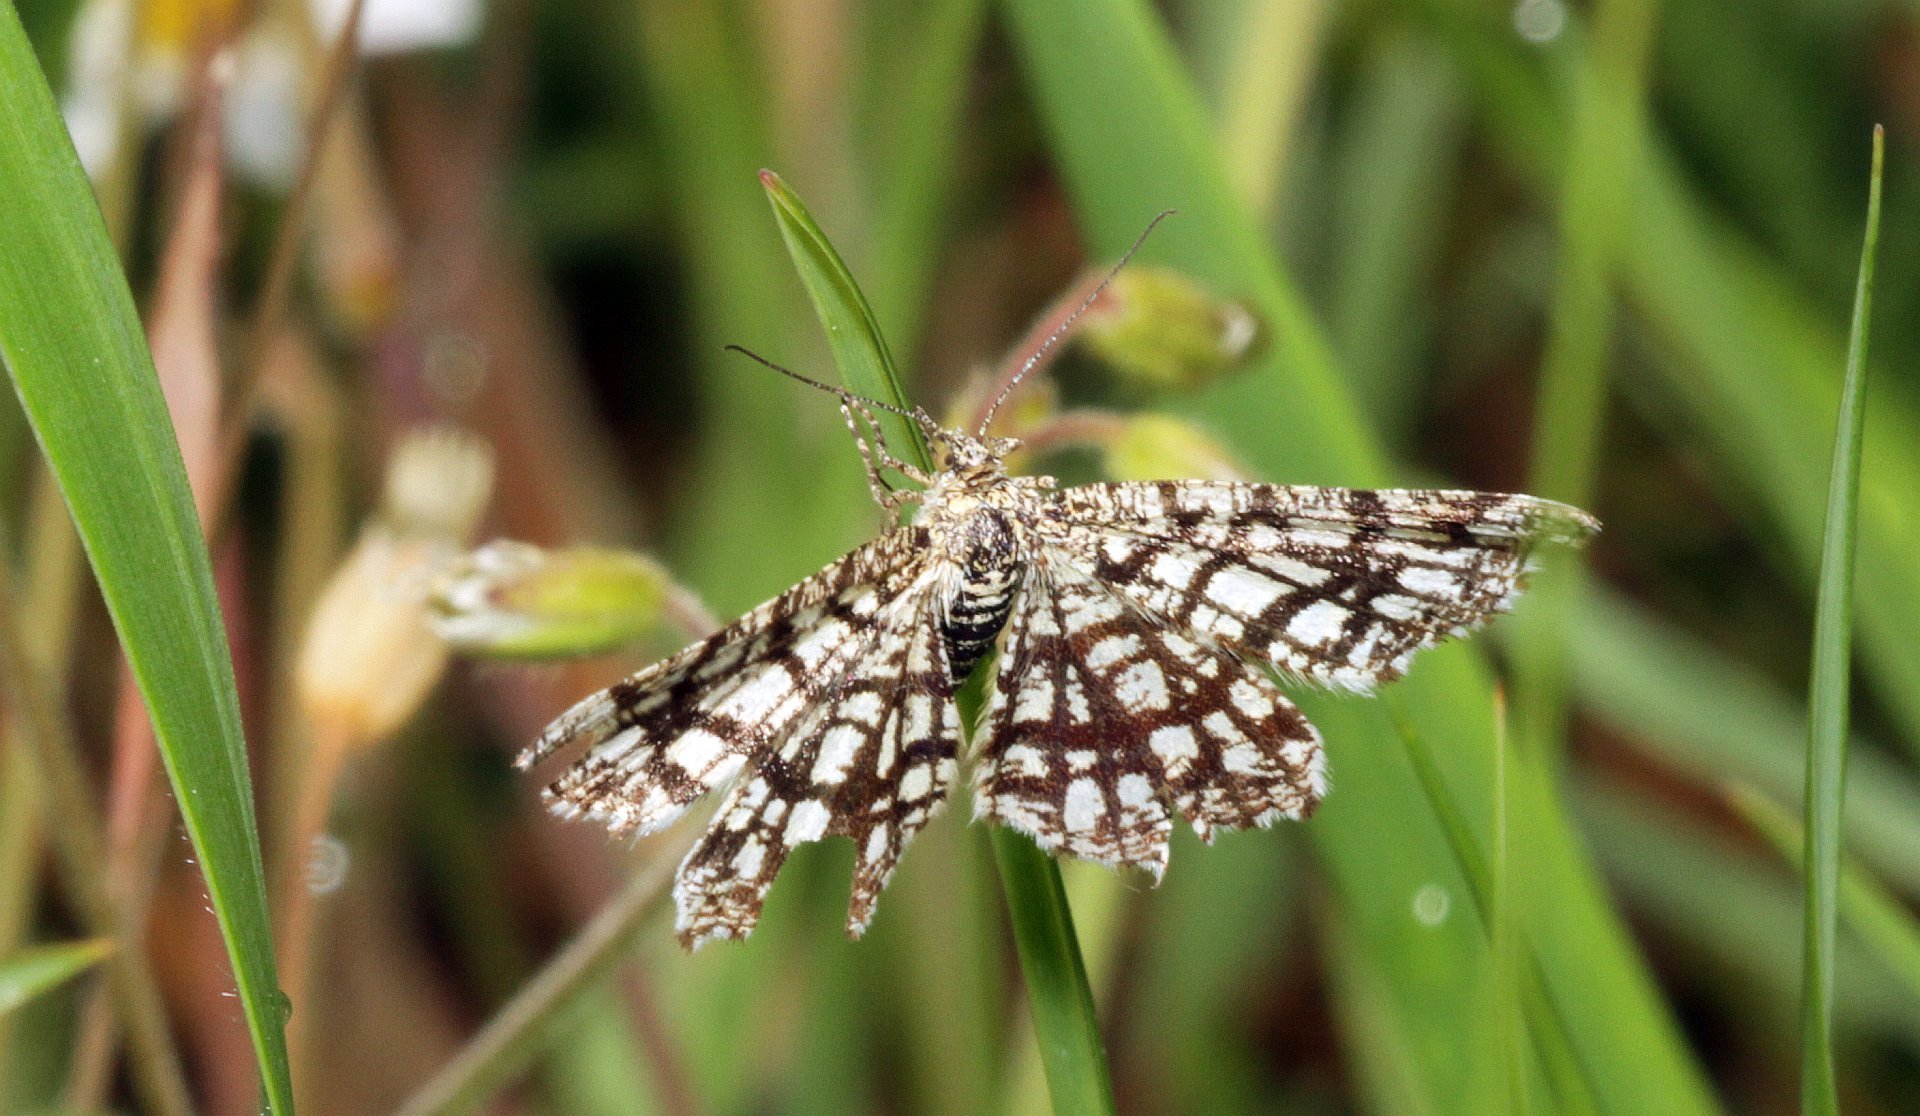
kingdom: Animalia
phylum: Arthropoda
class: Insecta
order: Lepidoptera
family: Geometridae
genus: Chiasmia
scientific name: Chiasmia clathrata
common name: Latticed heath
